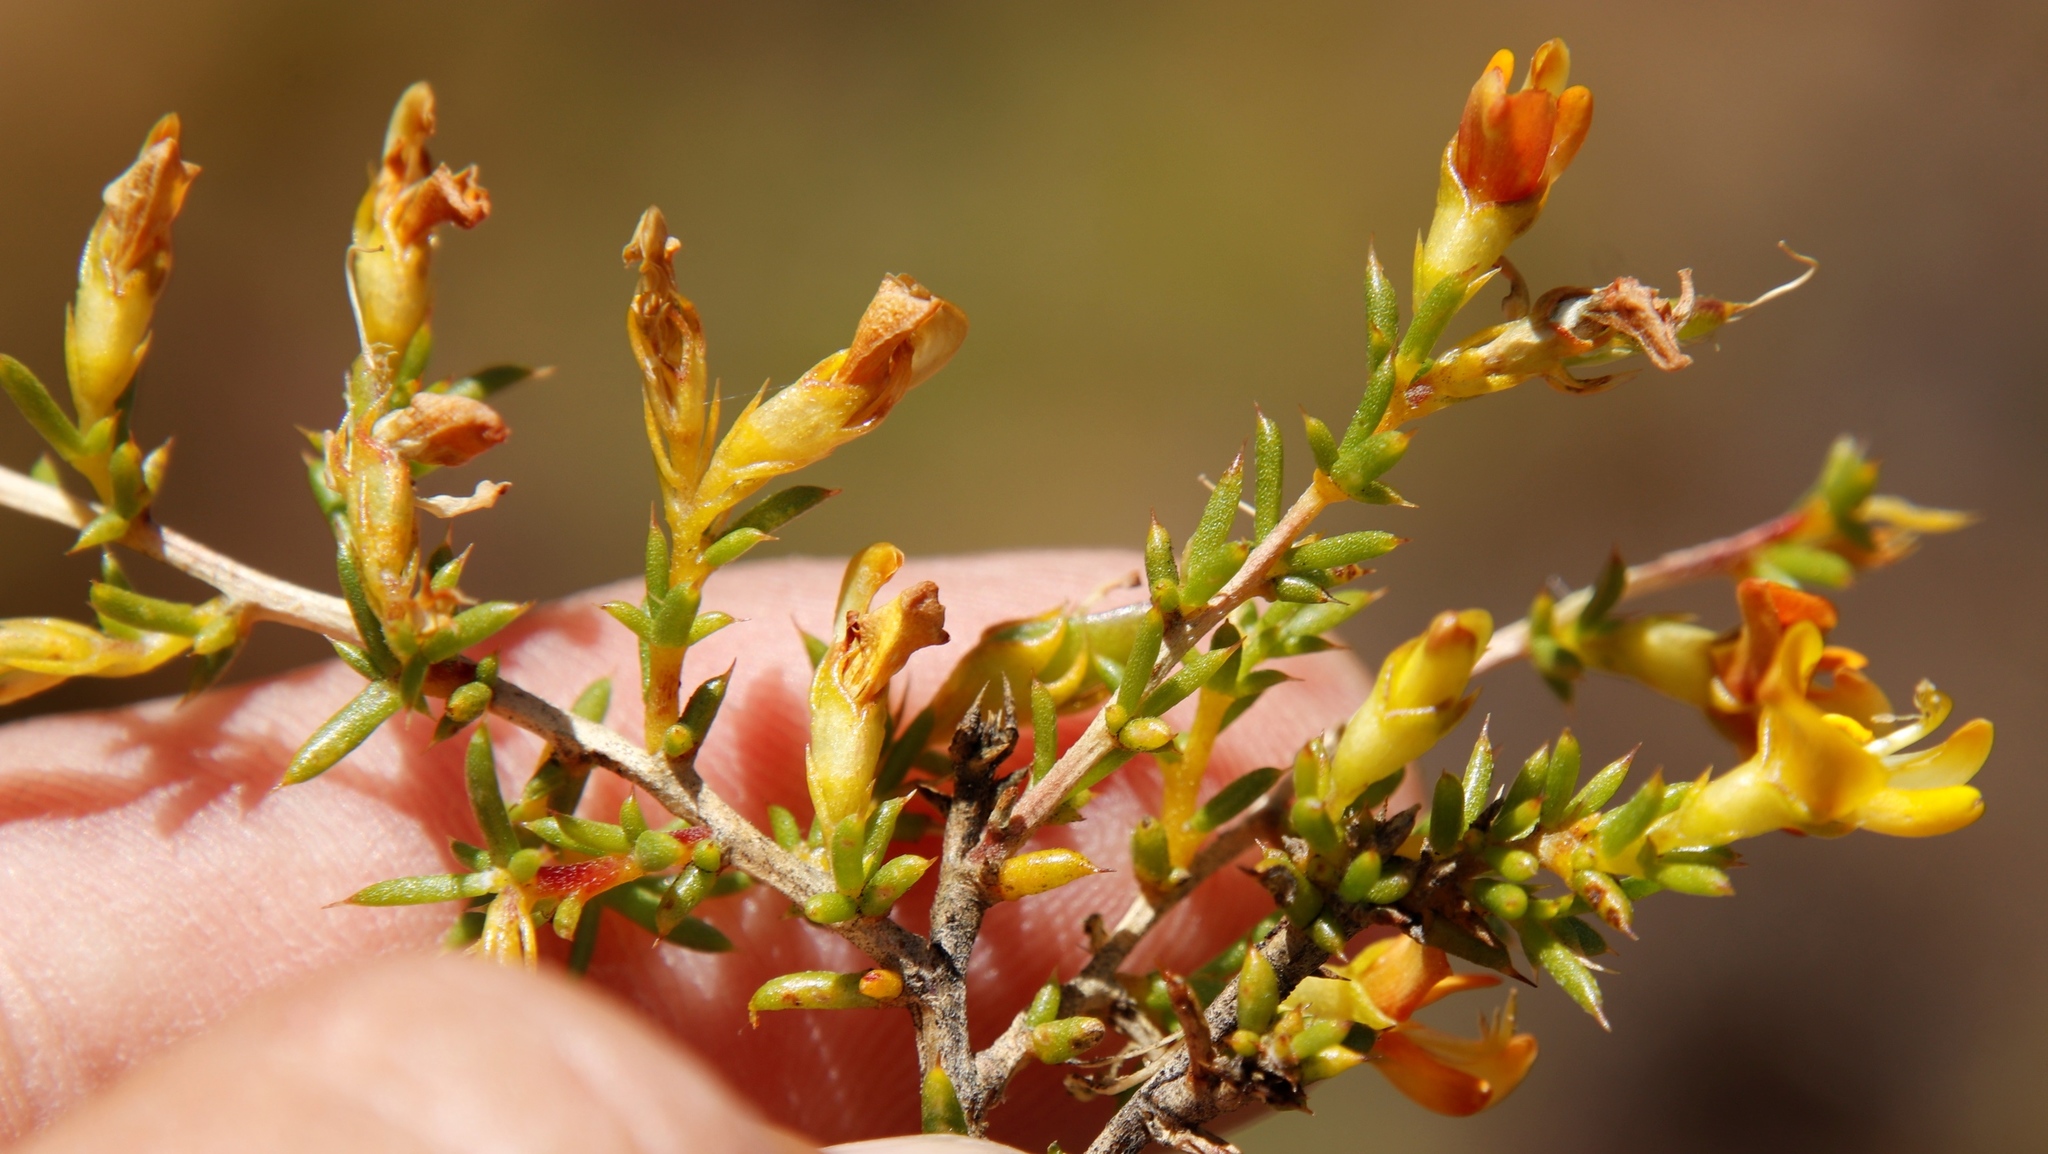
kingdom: Plantae
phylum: Tracheophyta
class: Magnoliopsida
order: Fabales
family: Fabaceae
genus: Aspalathus
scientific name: Aspalathus abietina
